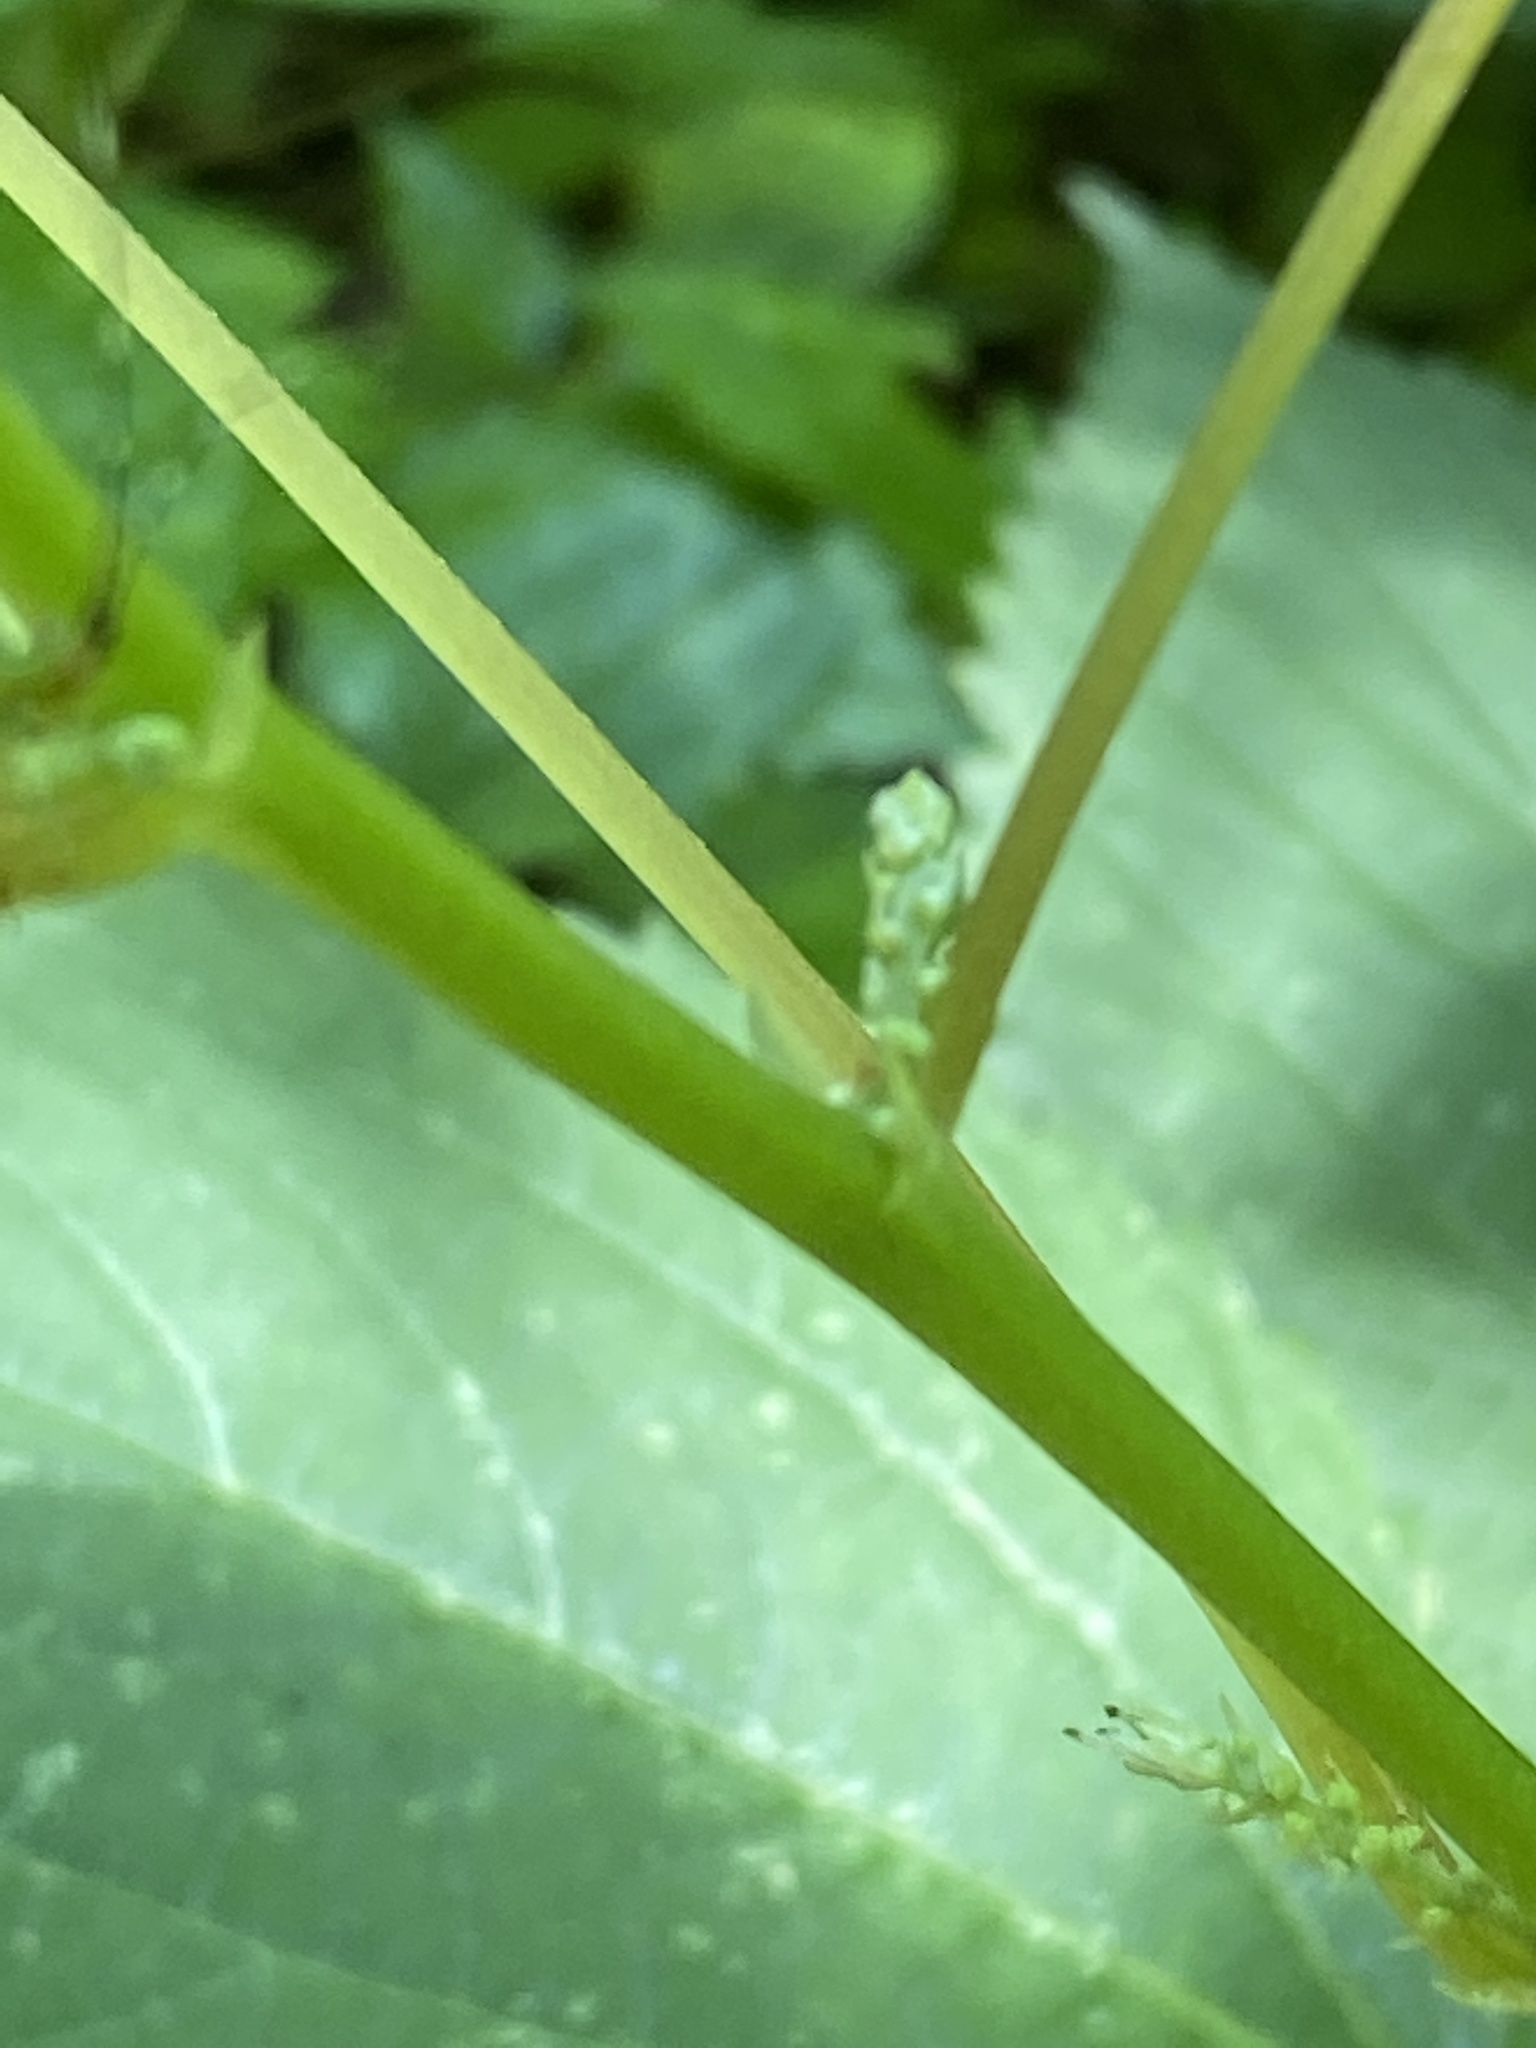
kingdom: Plantae
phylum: Tracheophyta
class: Magnoliopsida
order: Rosales
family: Urticaceae
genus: Boehmeria
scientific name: Boehmeria cylindrica
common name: Bog-hemp
